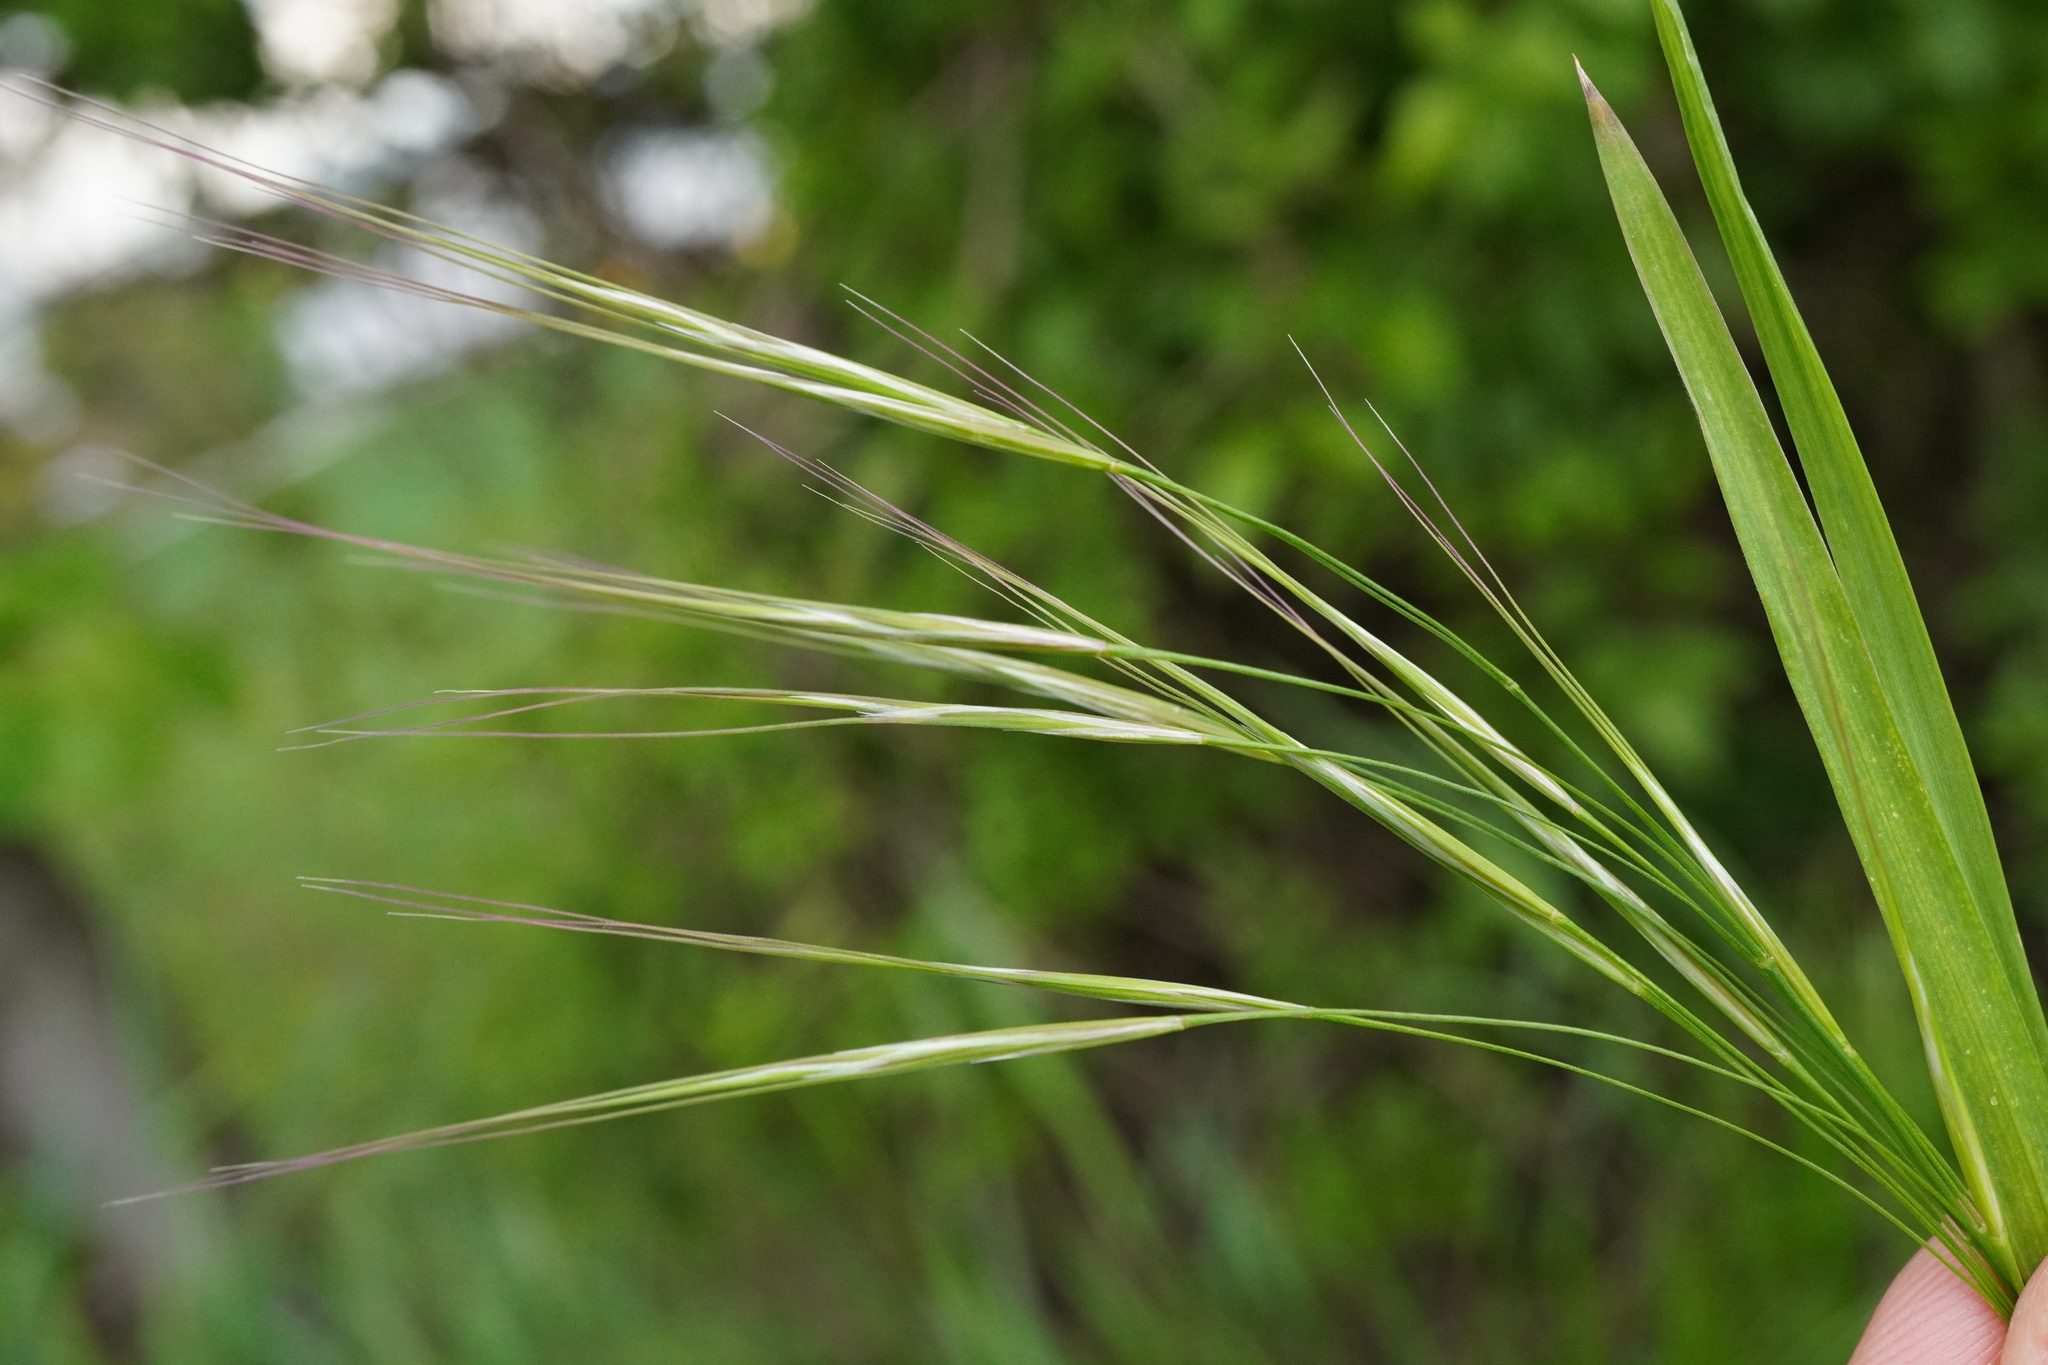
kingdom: Plantae
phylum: Tracheophyta
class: Liliopsida
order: Poales
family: Poaceae
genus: Bromus
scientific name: Bromus sterilis
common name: Poverty brome
